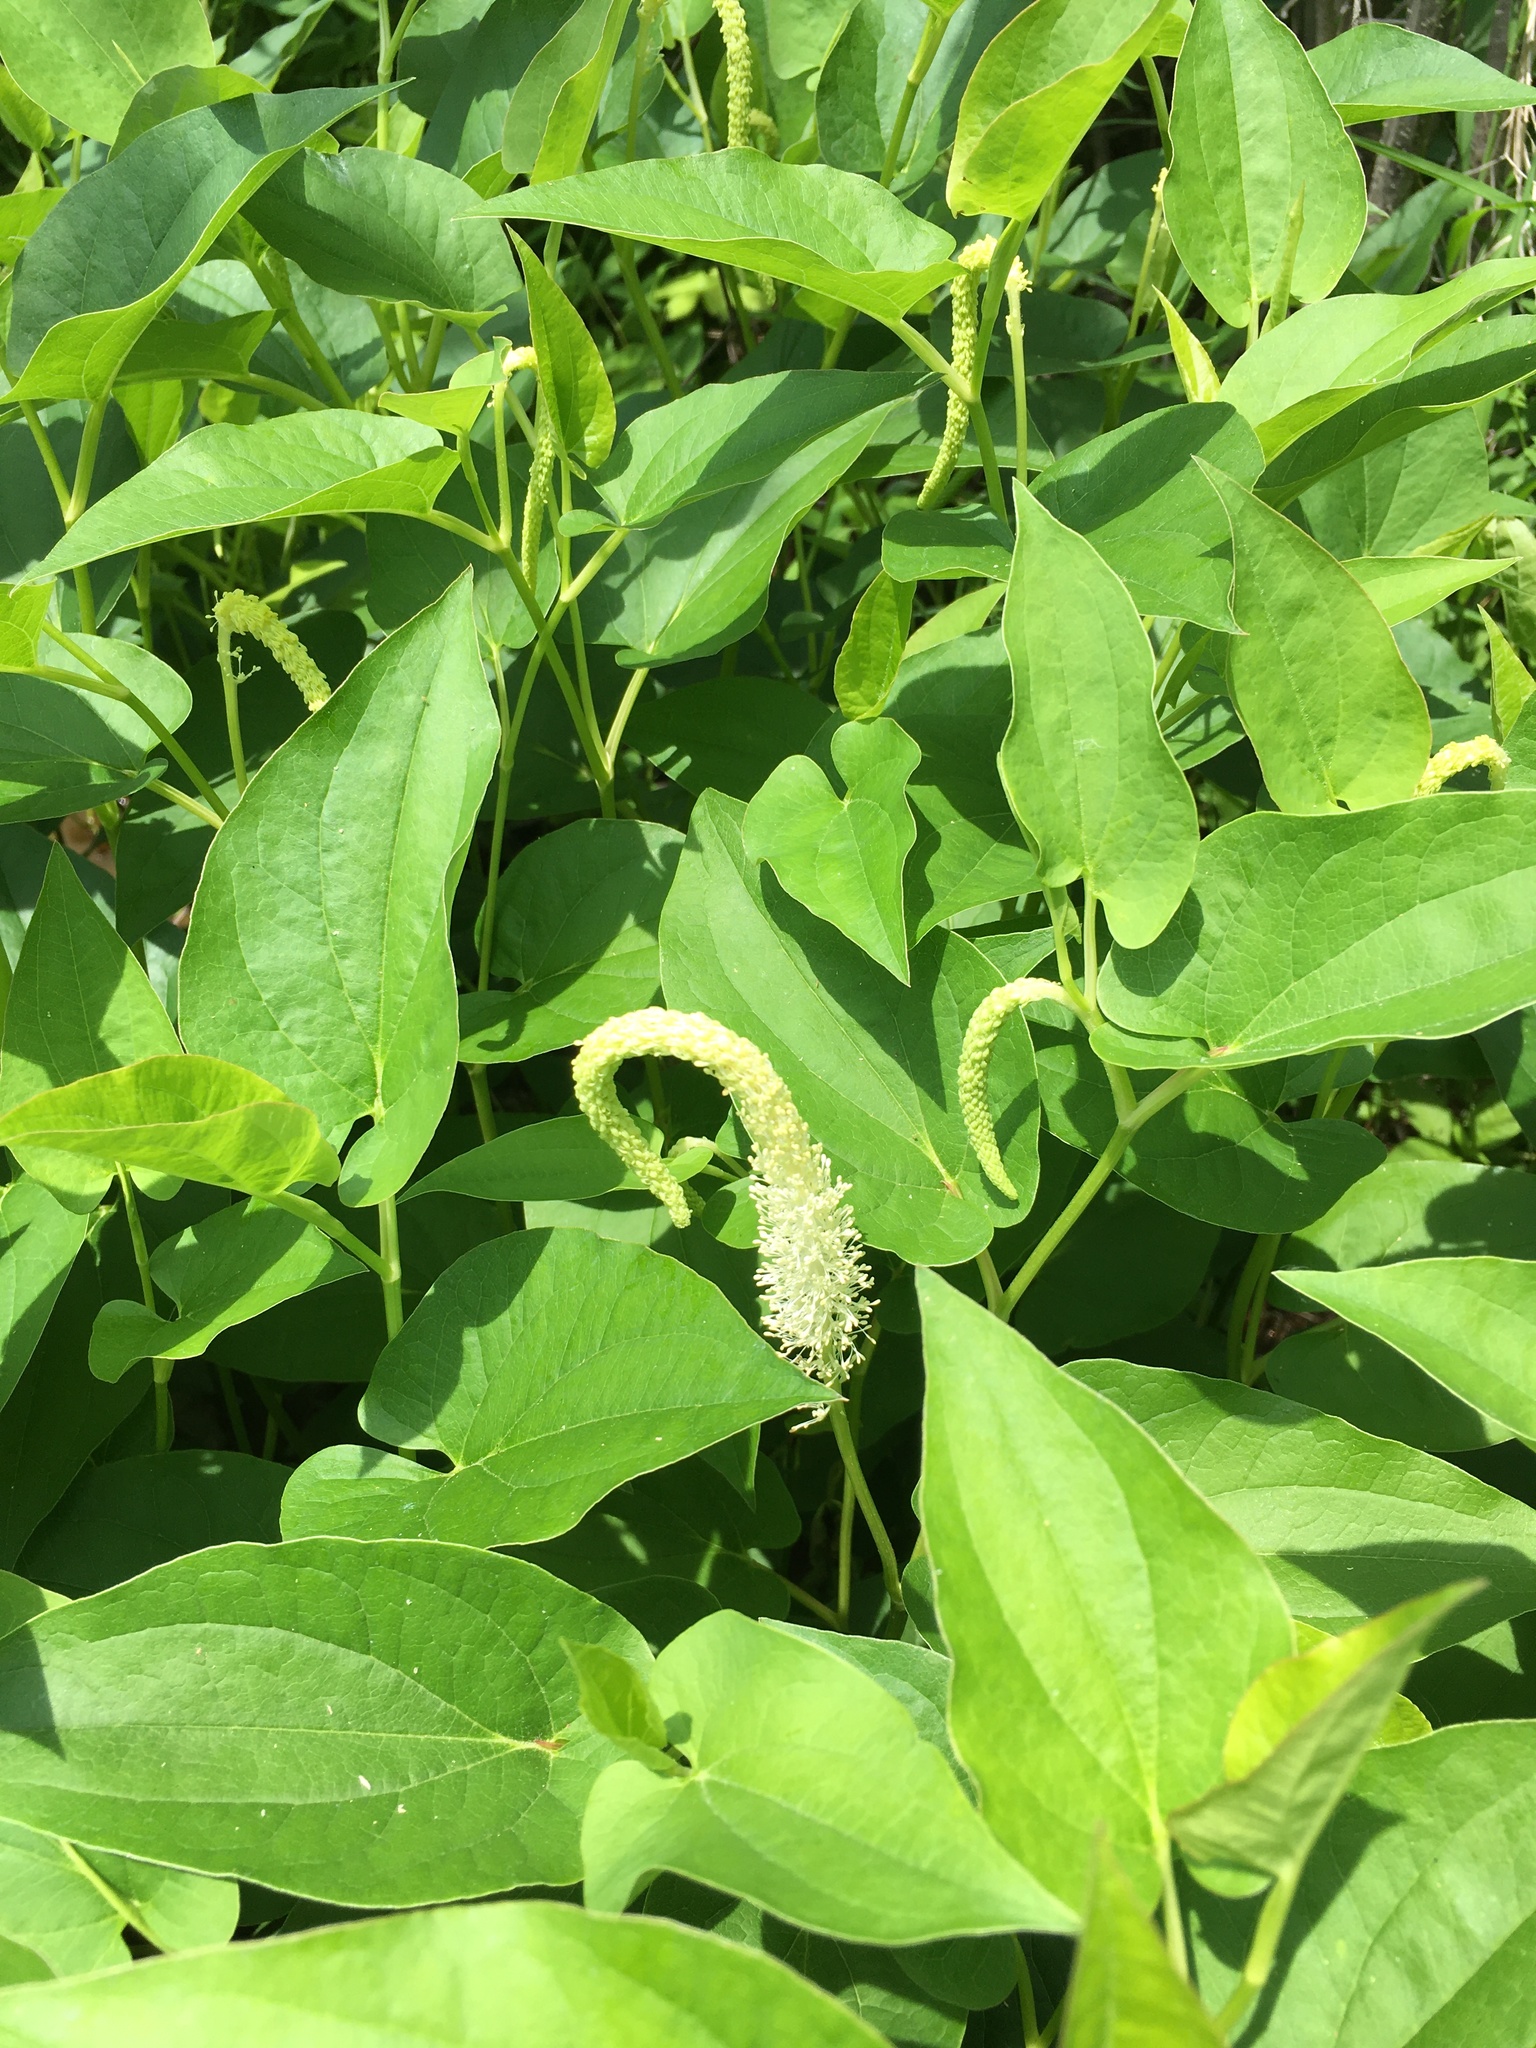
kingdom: Plantae
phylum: Tracheophyta
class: Magnoliopsida
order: Piperales
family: Saururaceae
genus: Saururus
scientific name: Saururus cernuus
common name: Lizard's-tail
